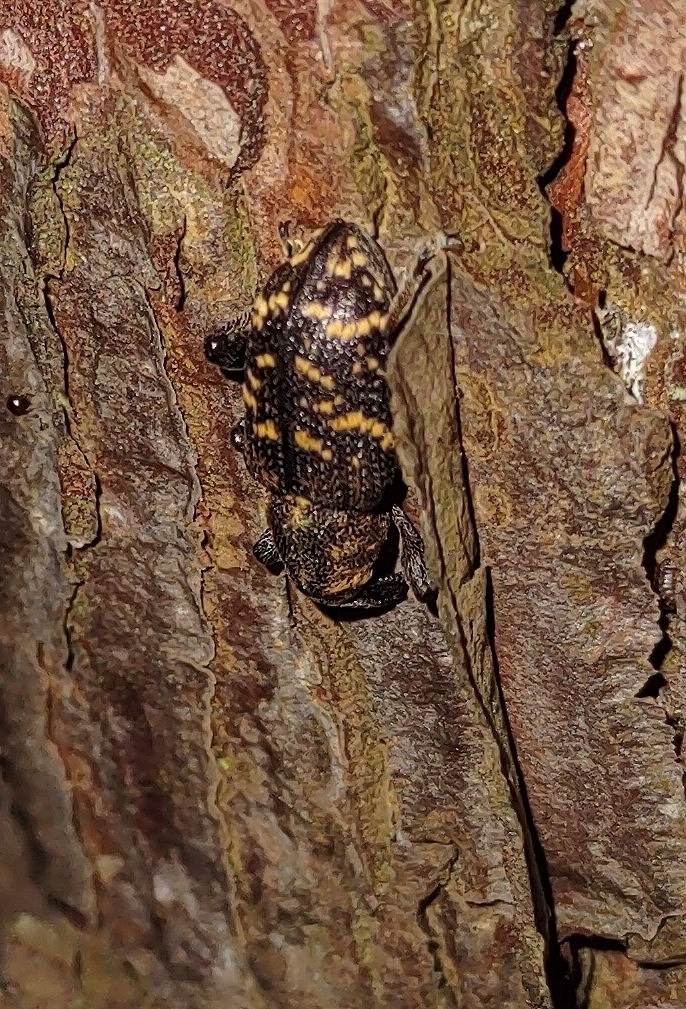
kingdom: Animalia
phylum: Arthropoda
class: Insecta
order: Coleoptera
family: Curculionidae
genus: Hylobius
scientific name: Hylobius abietis
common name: Large pine weevil
